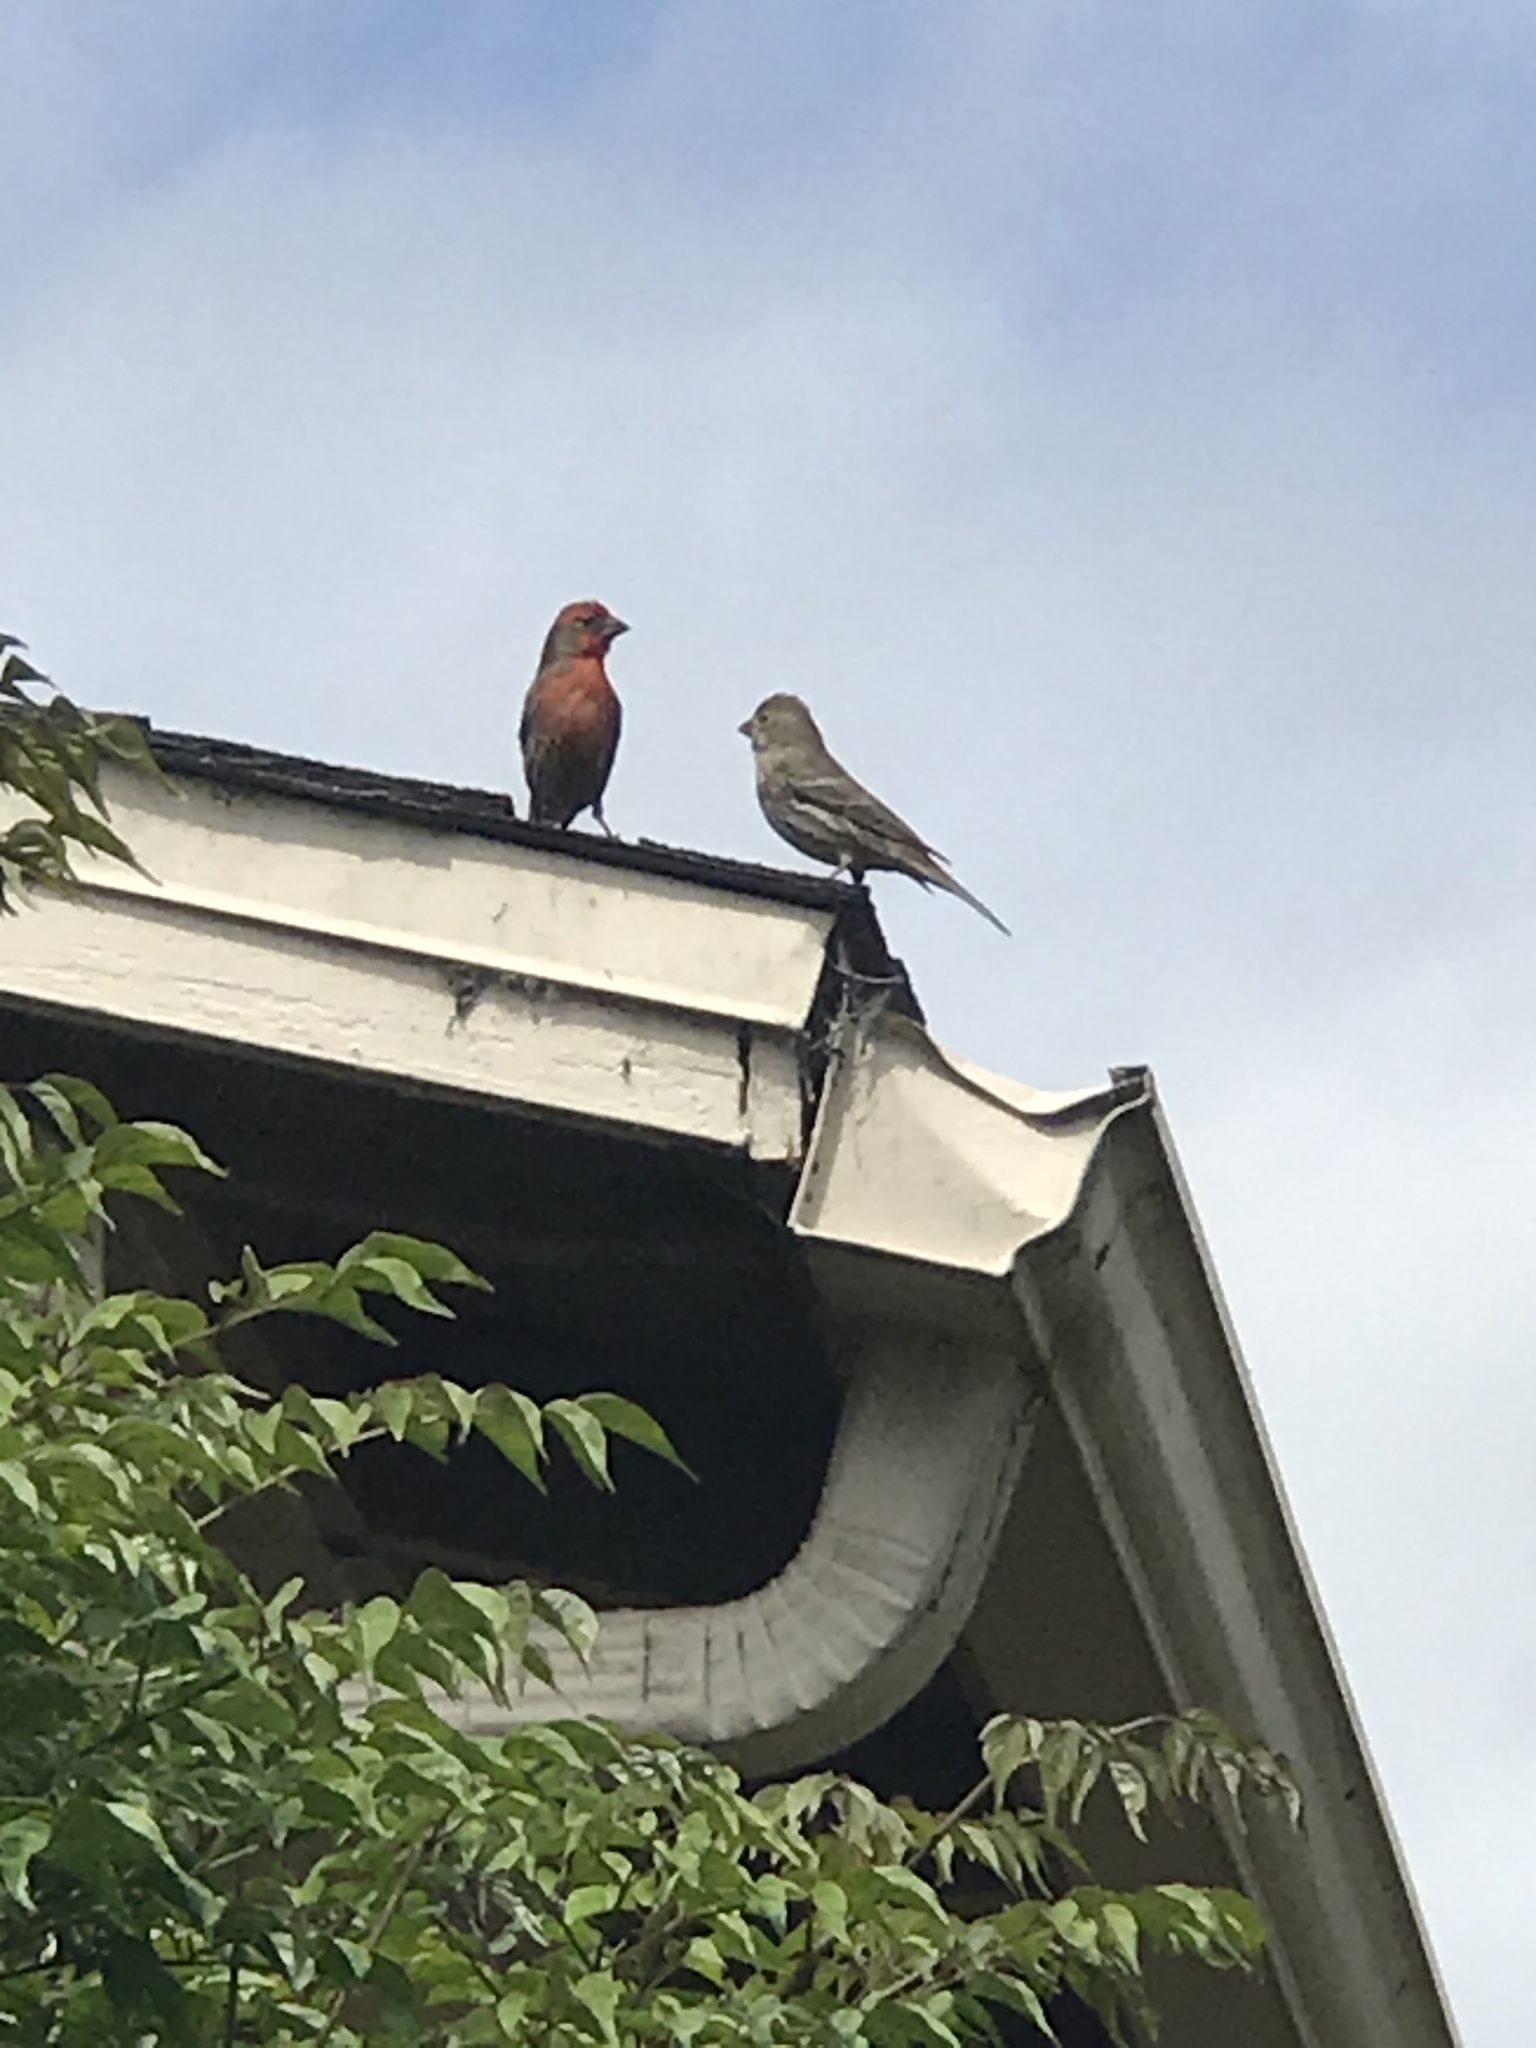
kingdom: Animalia
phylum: Chordata
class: Aves
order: Passeriformes
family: Fringillidae
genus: Haemorhous
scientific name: Haemorhous mexicanus
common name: House finch
